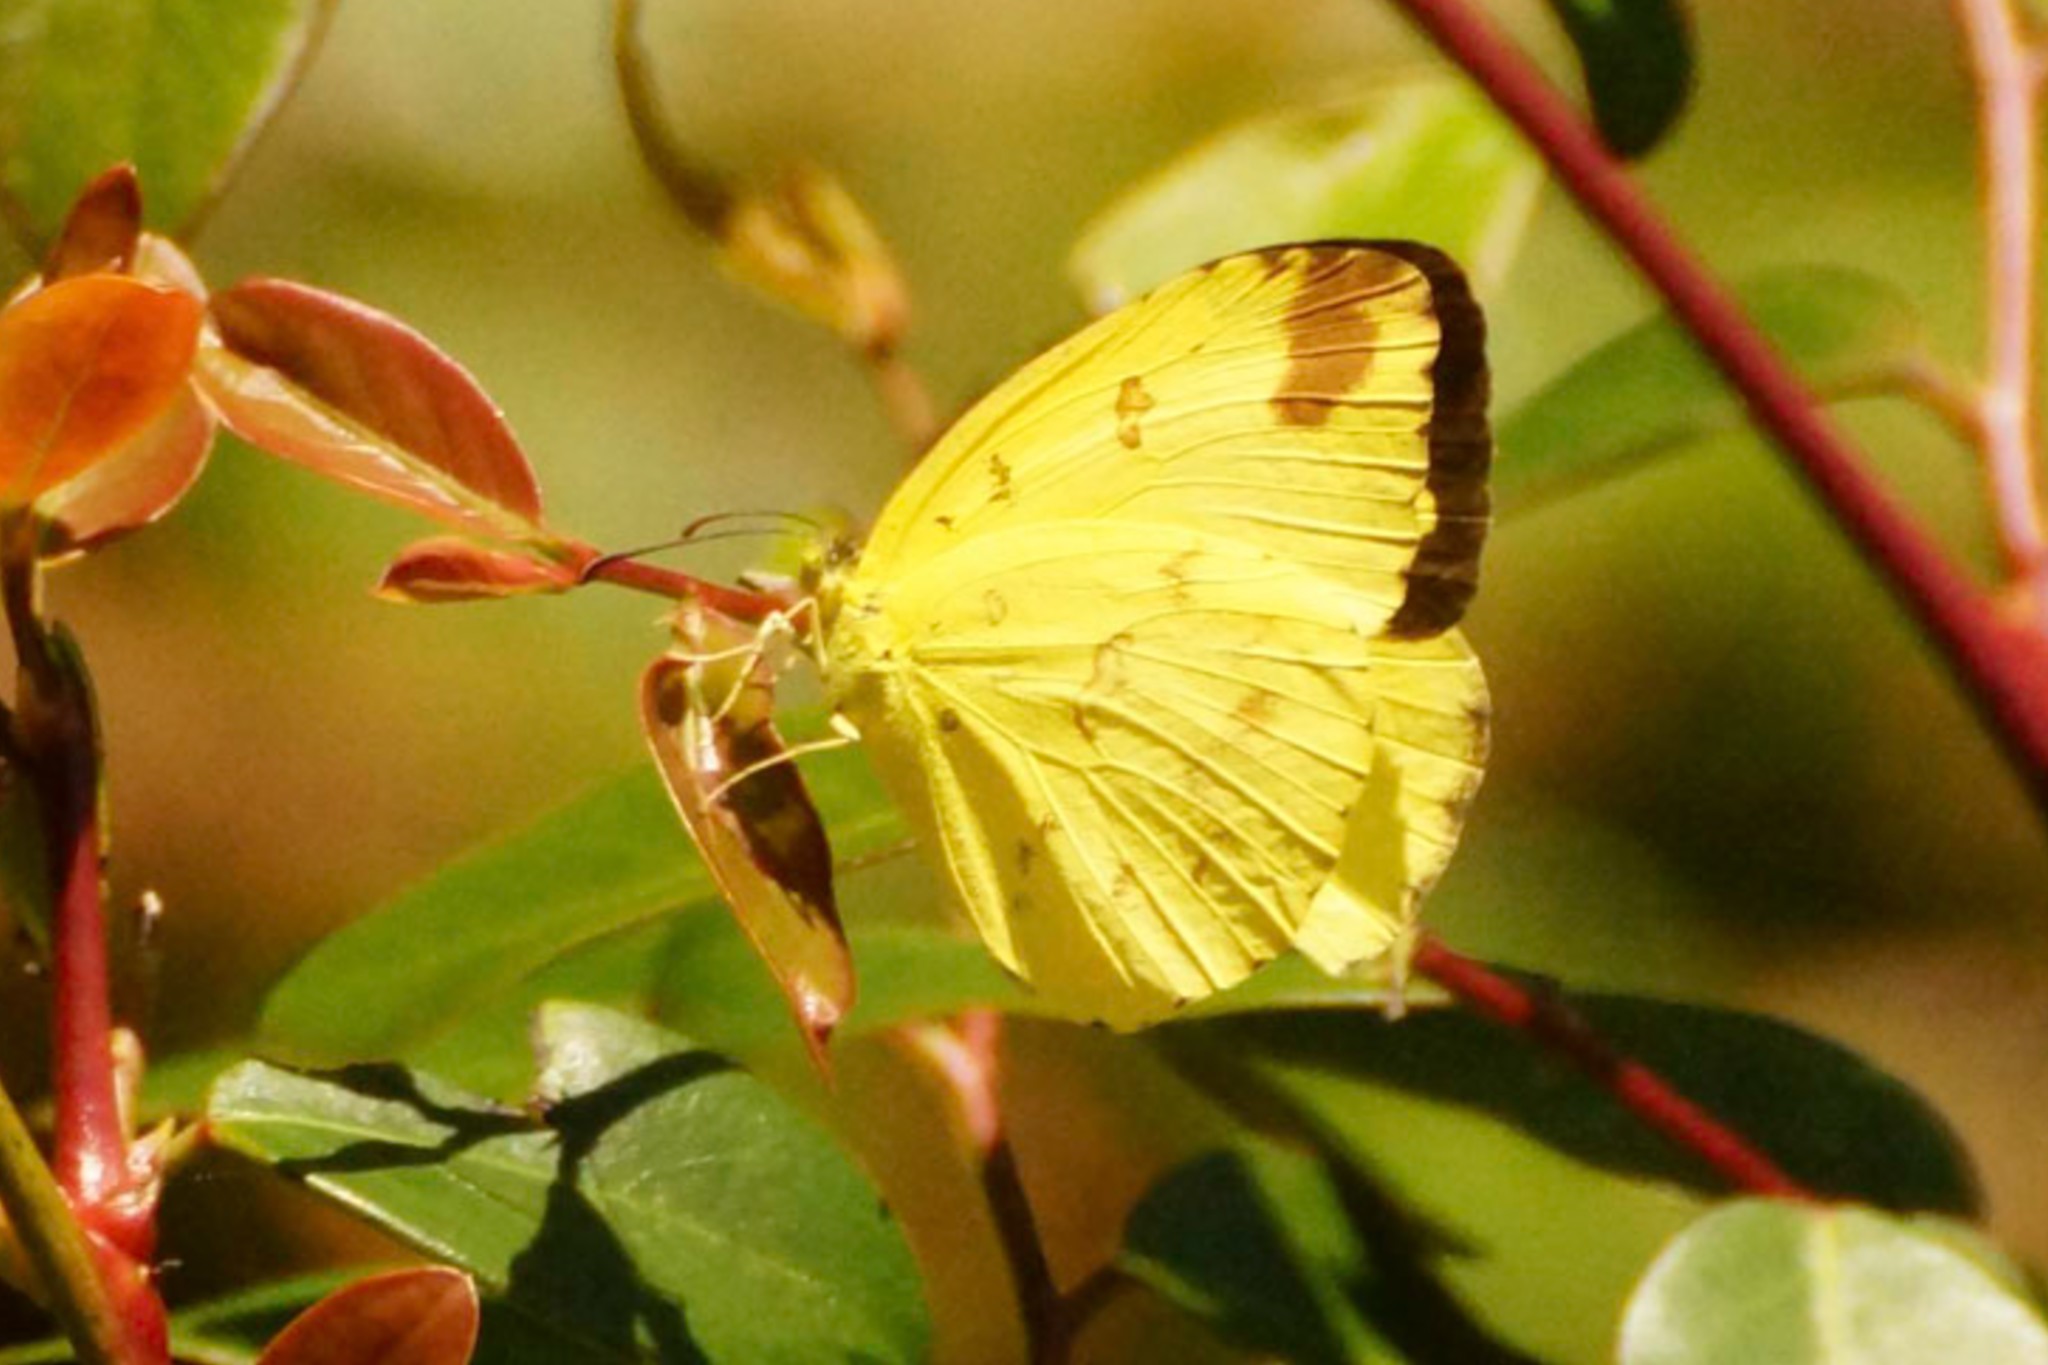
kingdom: Animalia
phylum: Arthropoda
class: Insecta
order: Lepidoptera
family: Pieridae
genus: Eurema
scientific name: Eurema hecabe
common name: Pale grass yellow
